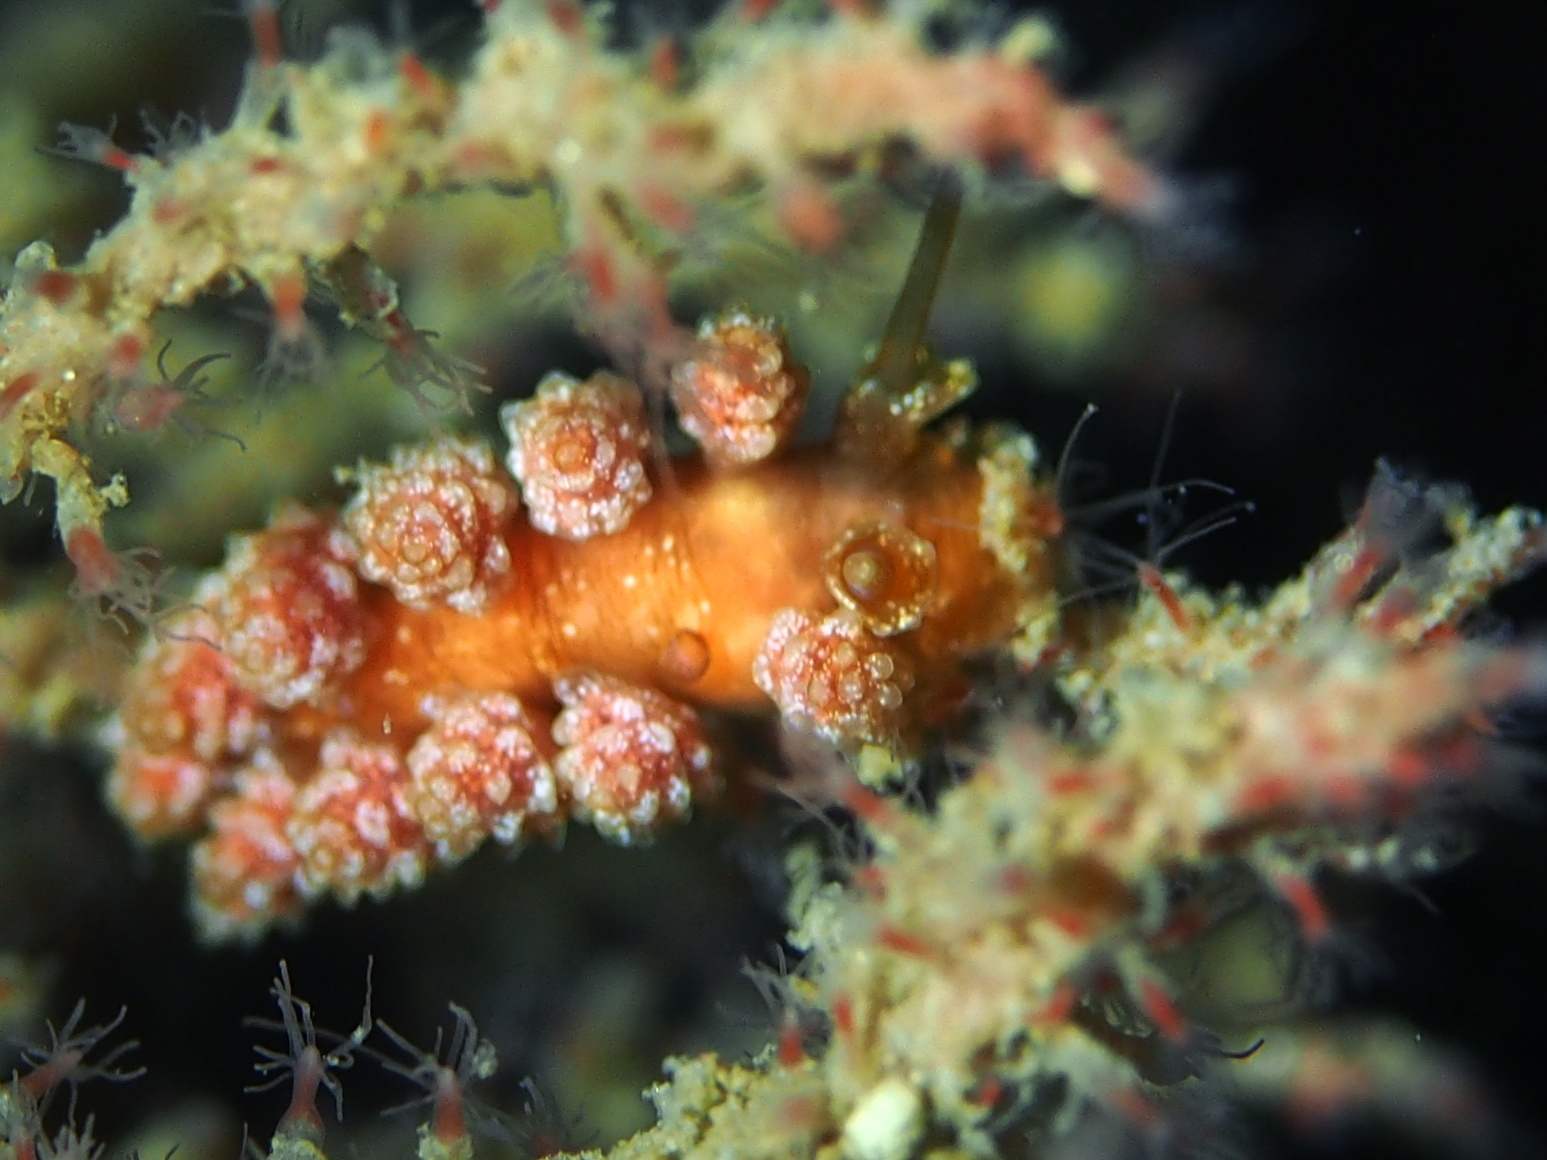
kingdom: Animalia
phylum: Mollusca
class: Gastropoda
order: Nudibranchia
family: Dotidae
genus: Doto
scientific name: Doto fragilis
